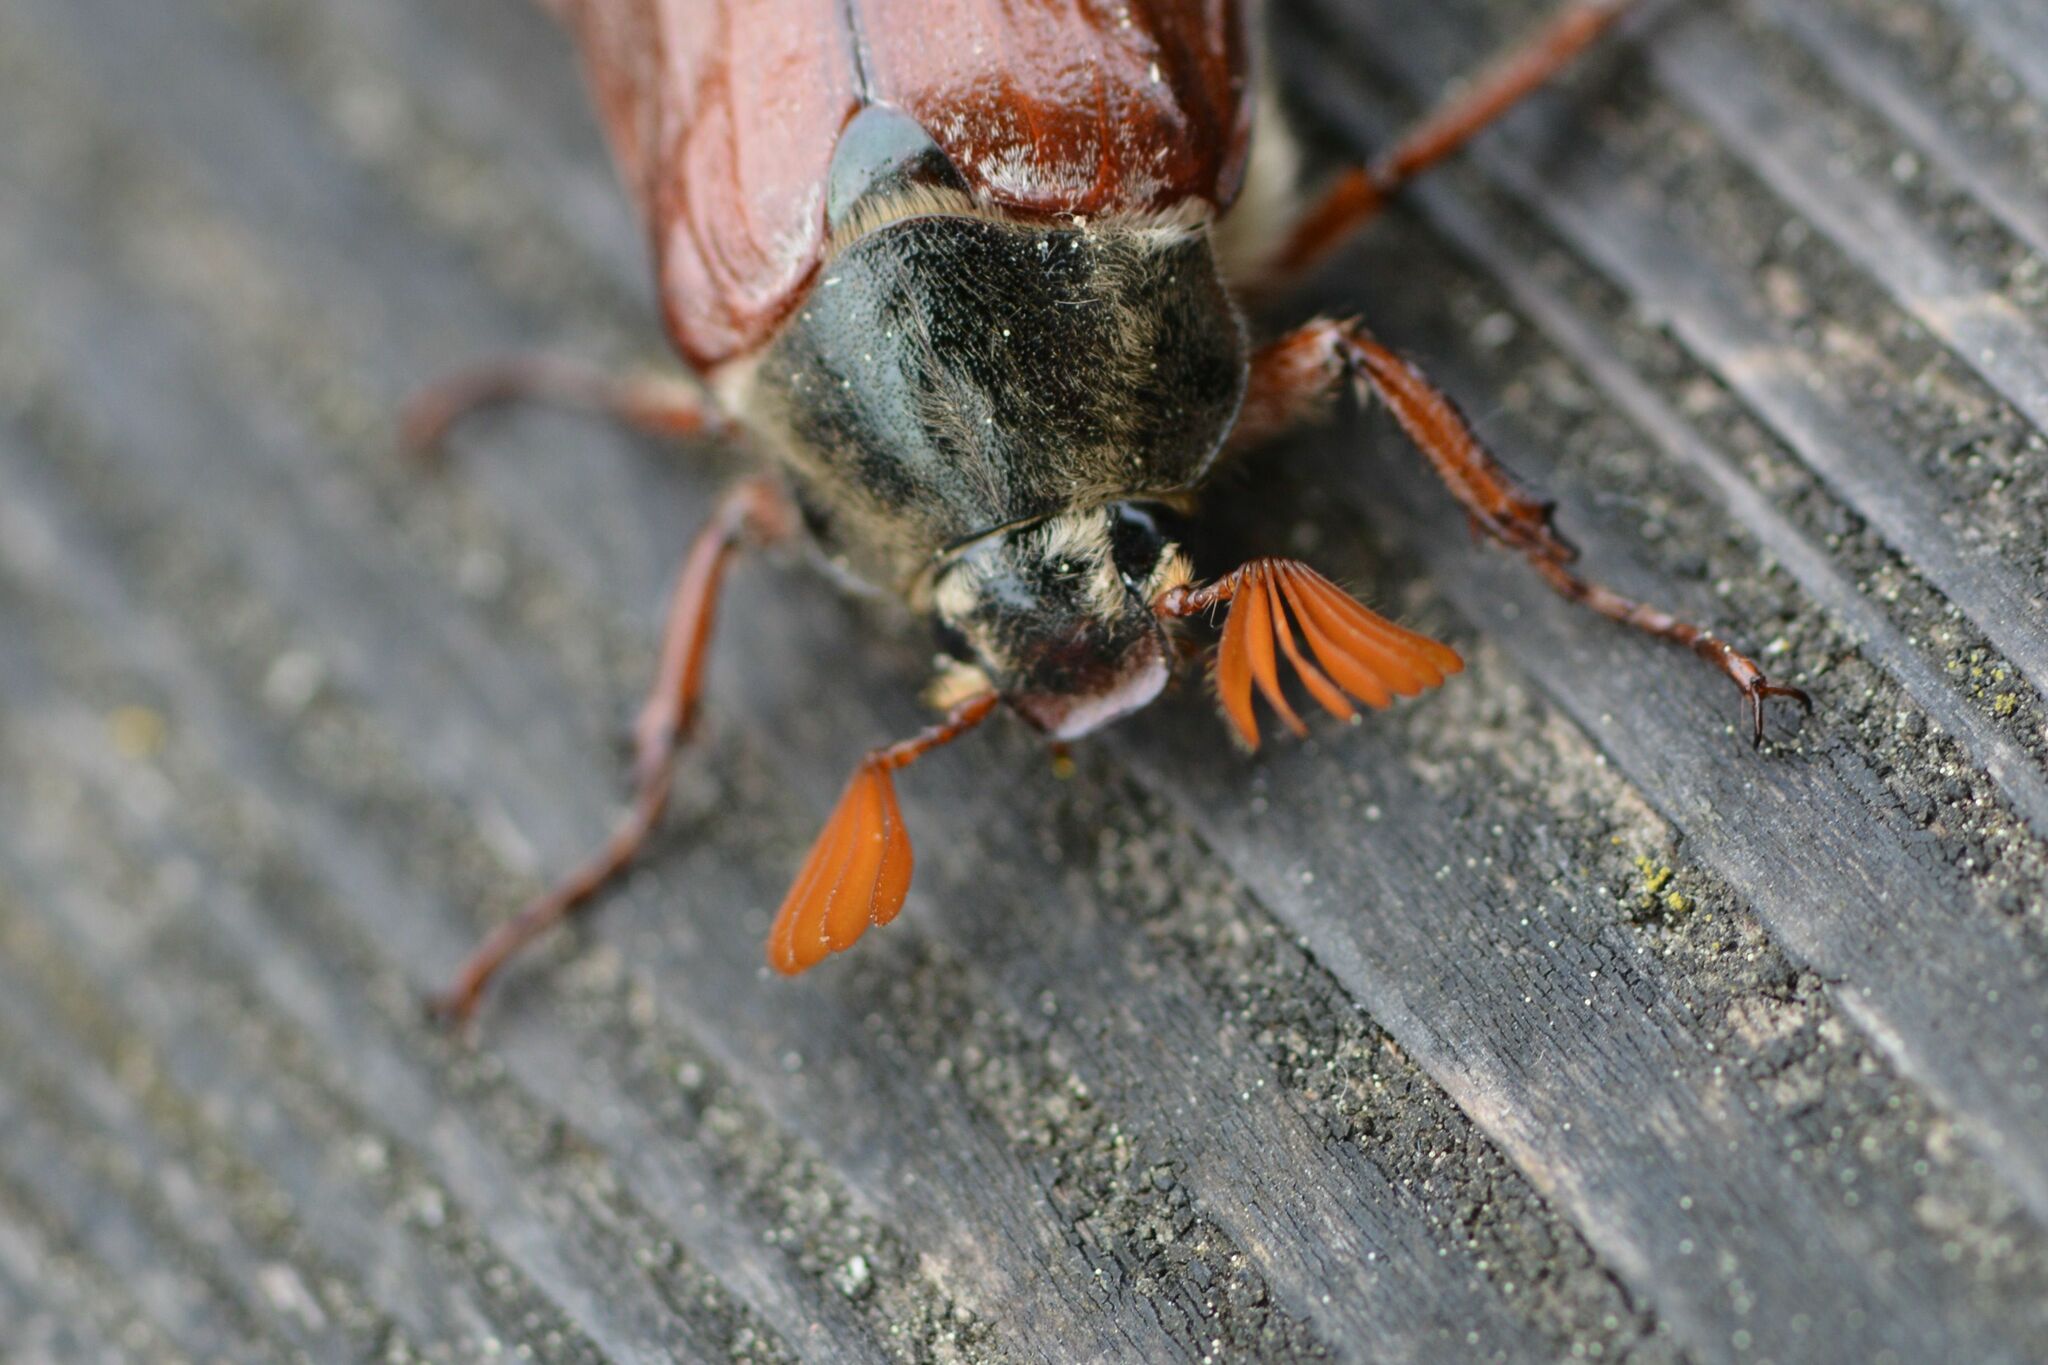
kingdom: Animalia
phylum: Arthropoda
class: Insecta
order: Coleoptera
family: Scarabaeidae
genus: Melolontha
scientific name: Melolontha melolontha
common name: Cockchafer maybeetle
